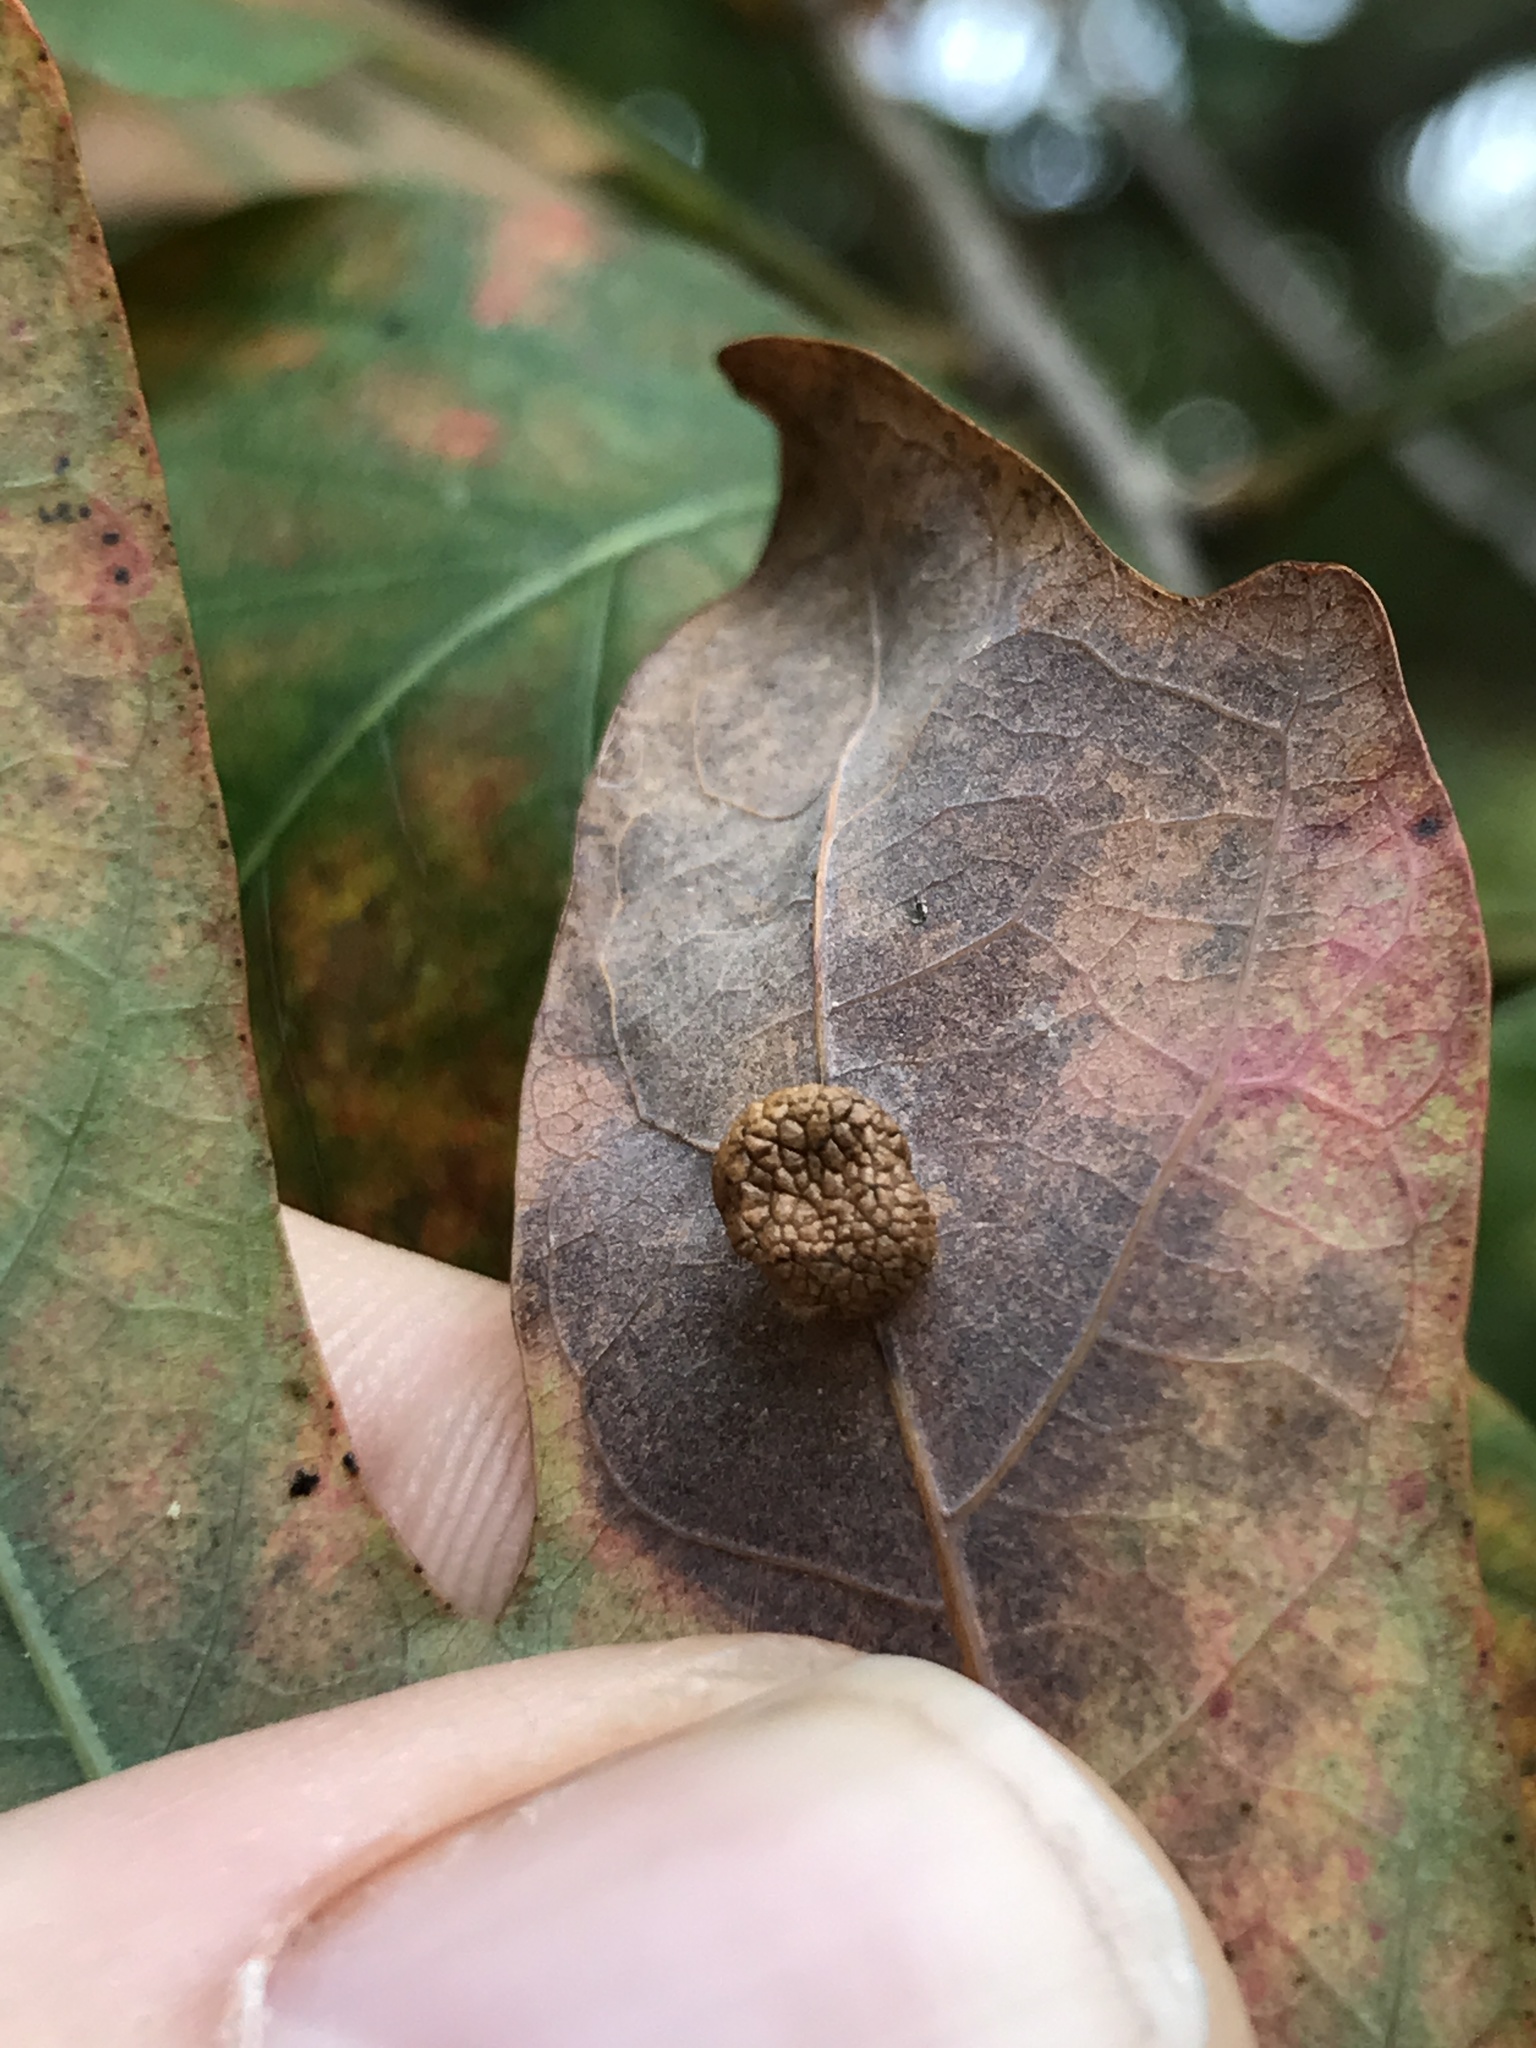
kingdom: Animalia
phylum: Arthropoda
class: Insecta
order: Hymenoptera
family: Cynipidae
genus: Acraspis
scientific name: Acraspis
